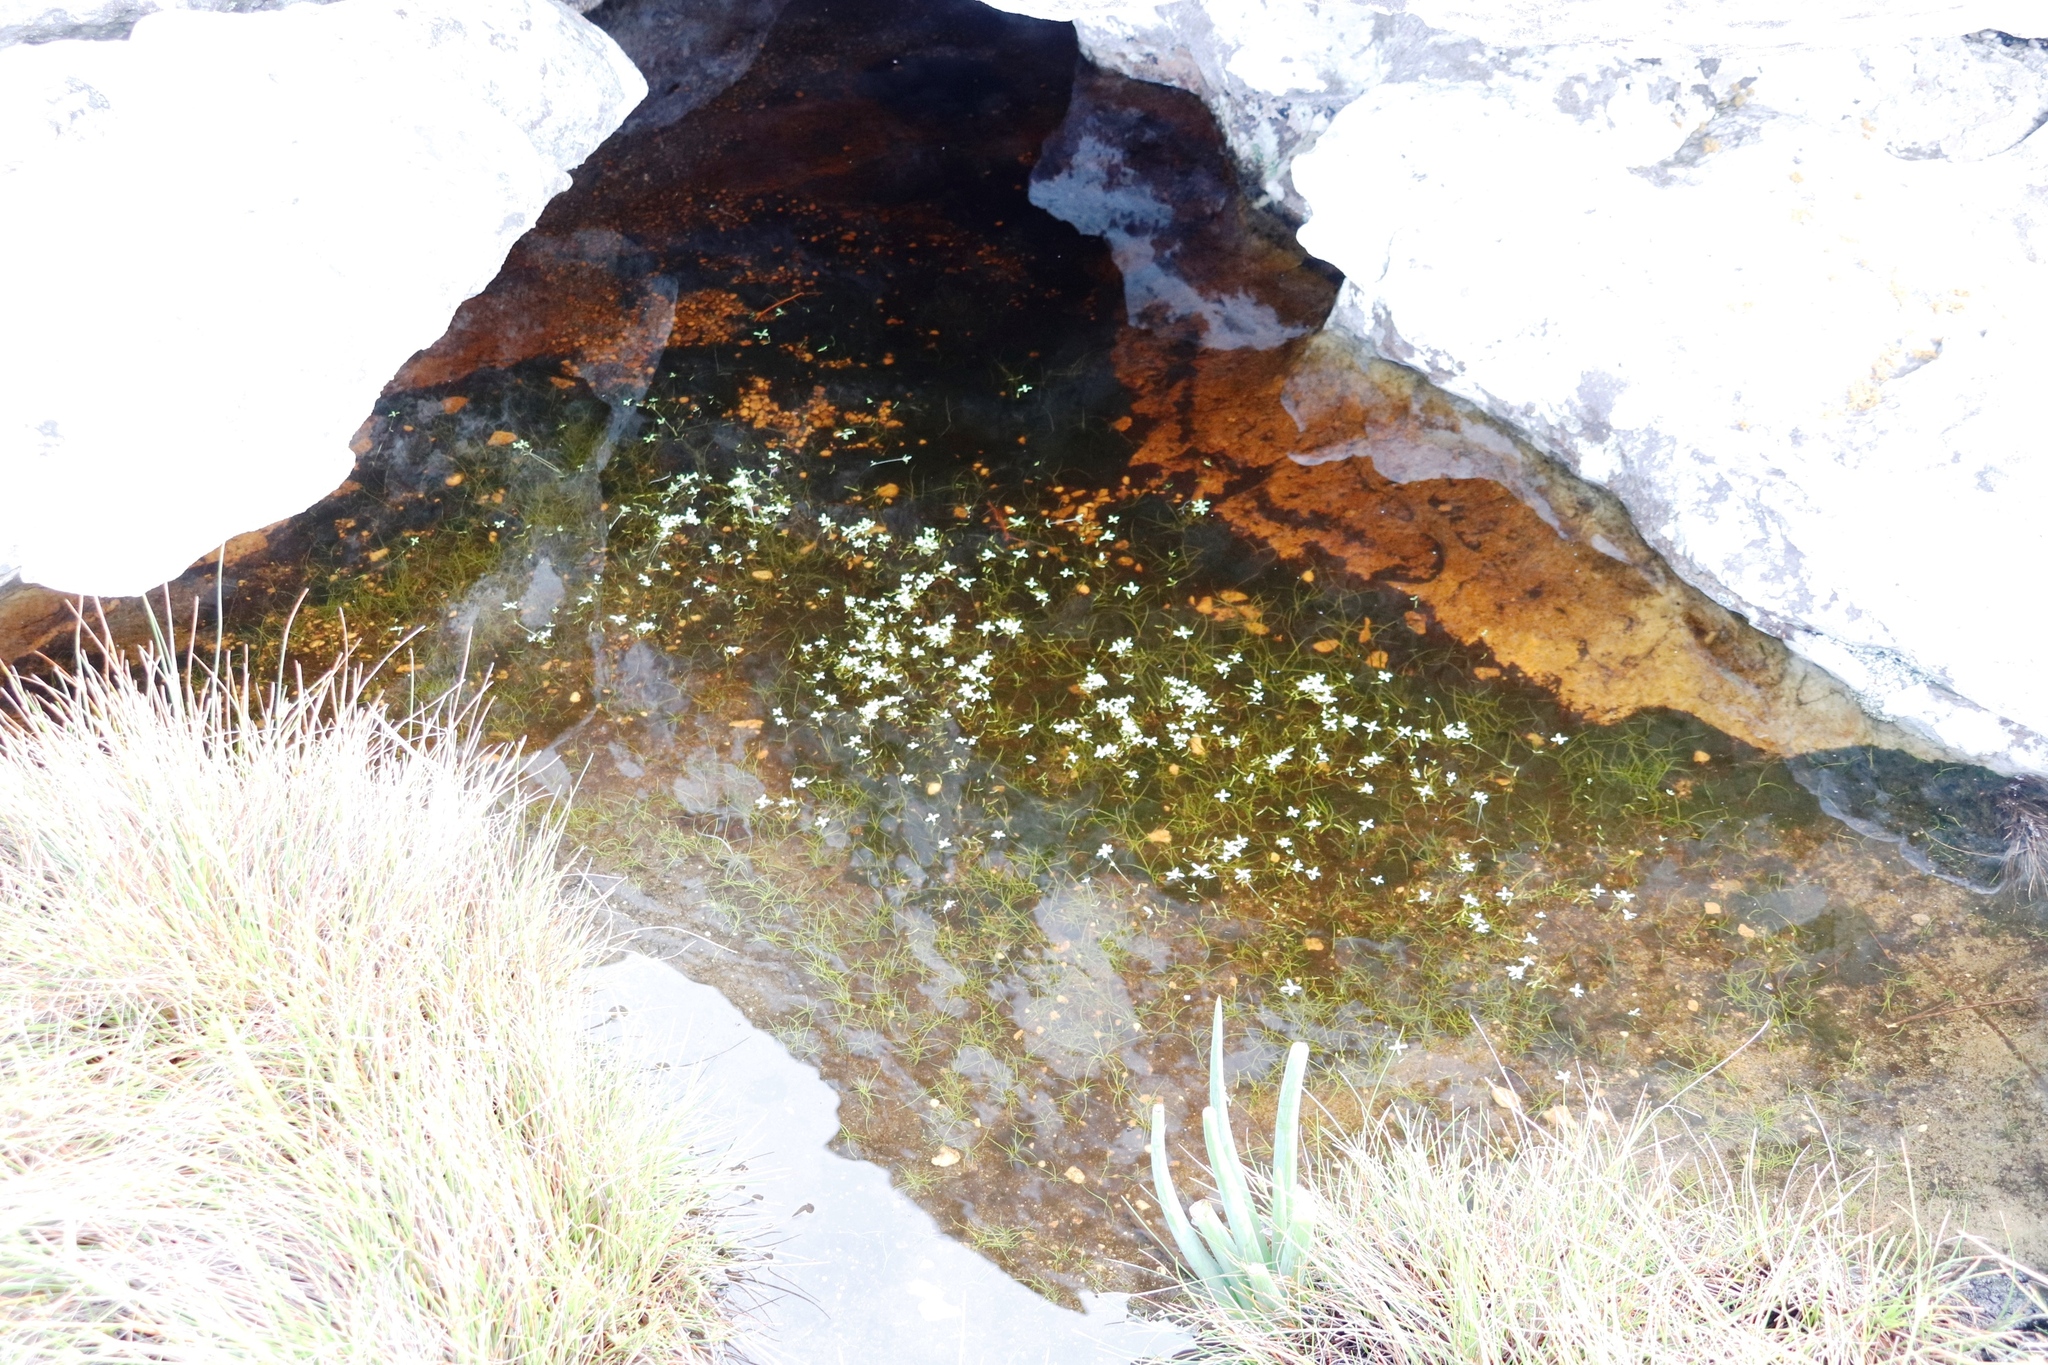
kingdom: Plantae
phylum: Tracheophyta
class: Magnoliopsida
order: Saxifragales
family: Crassulaceae
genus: Crassula
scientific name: Crassula natans
